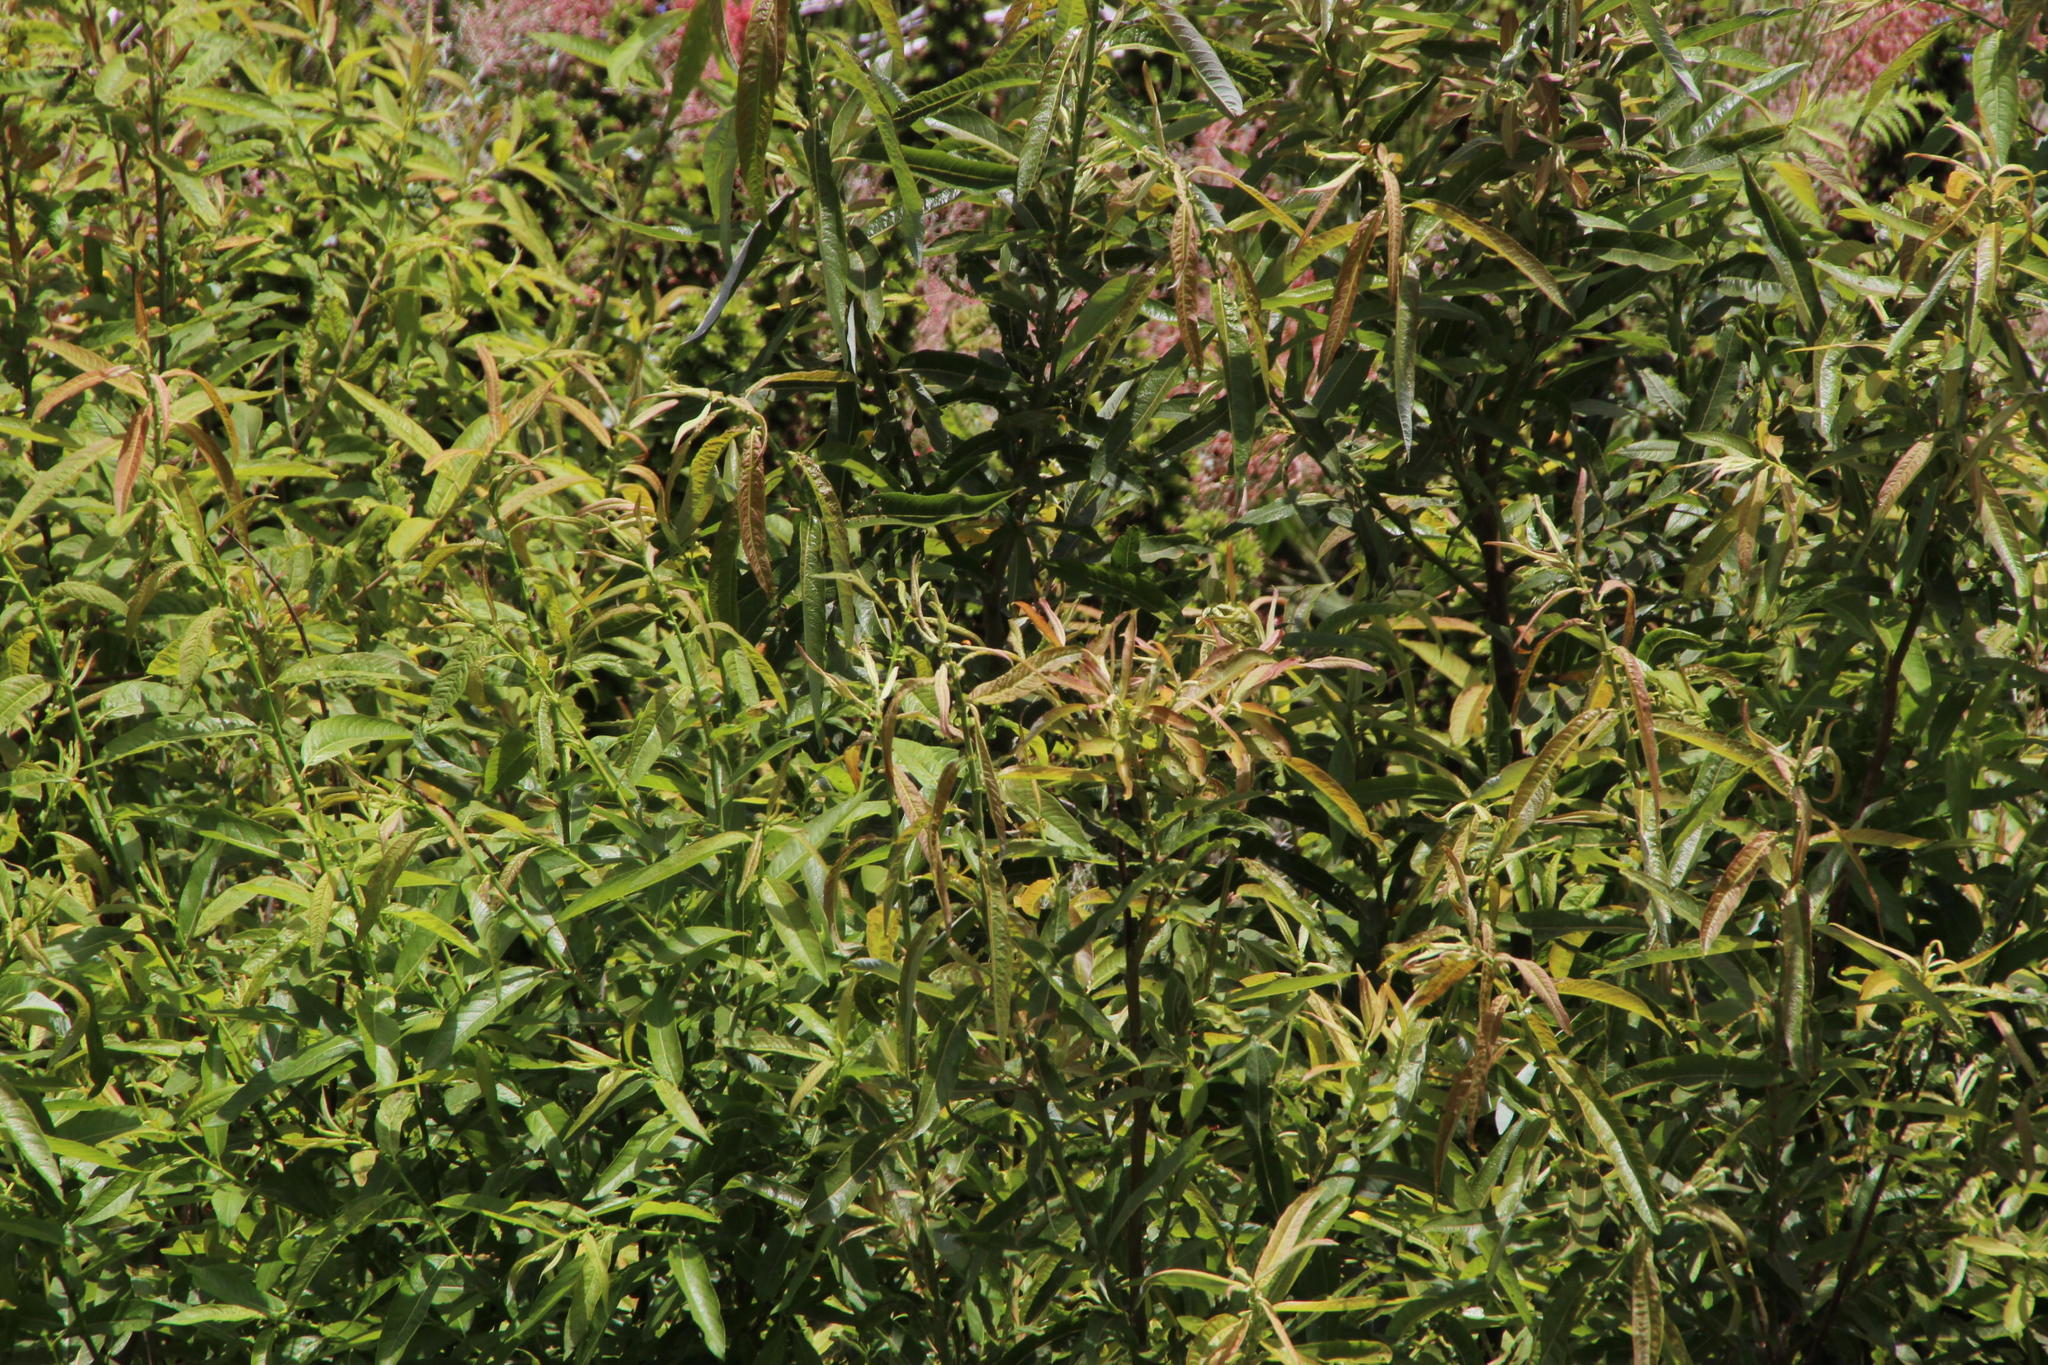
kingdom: Plantae
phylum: Tracheophyta
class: Magnoliopsida
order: Malpighiales
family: Salicaceae
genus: Salix
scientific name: Salix canariensis
